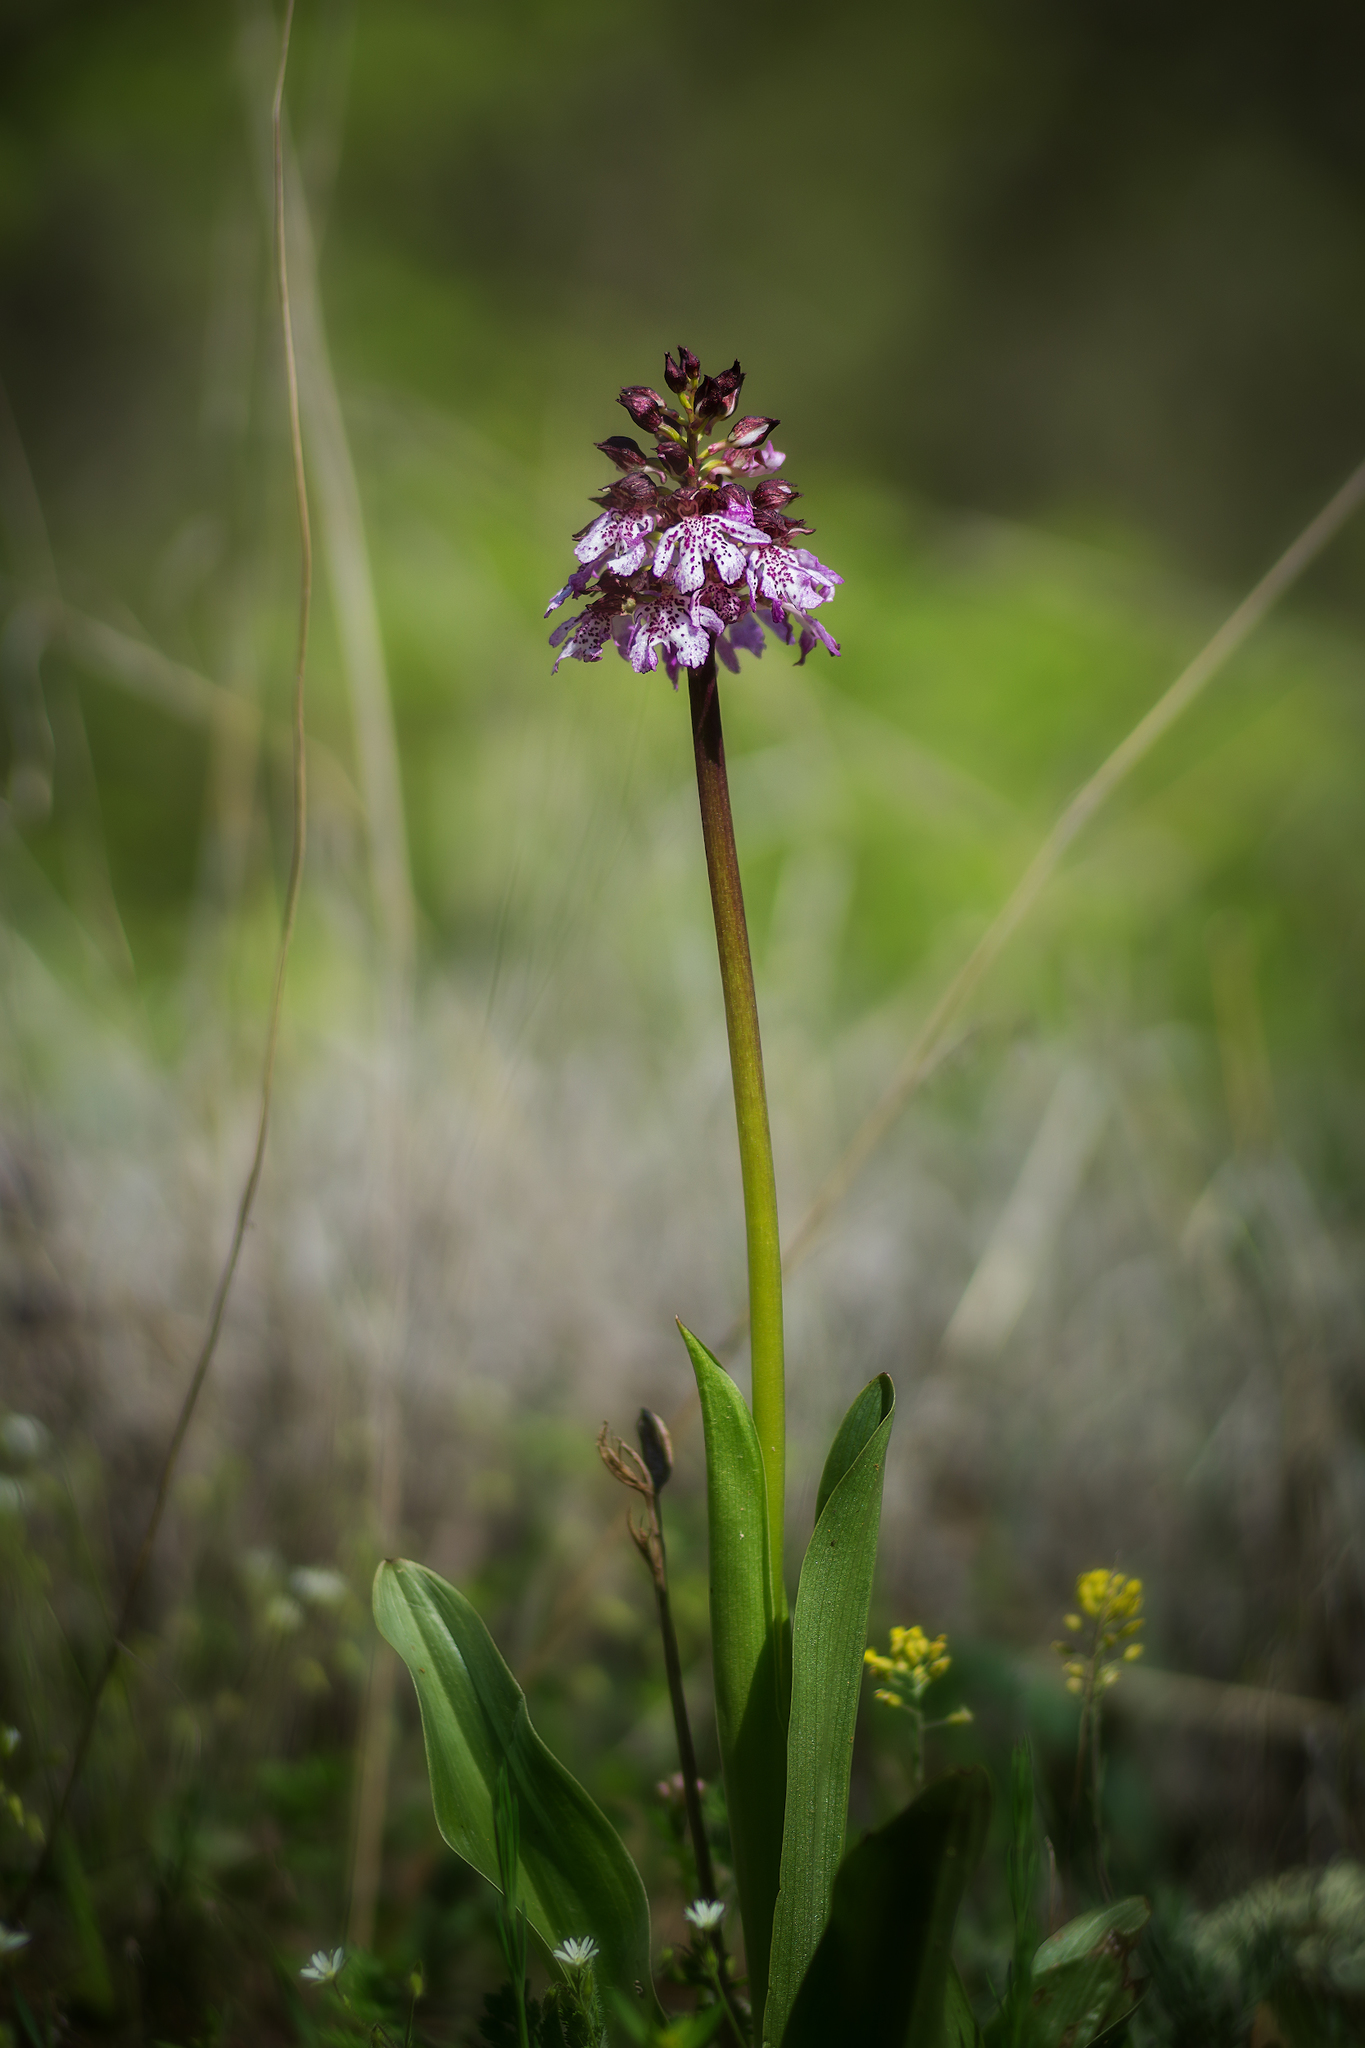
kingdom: Plantae
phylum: Tracheophyta
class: Liliopsida
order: Asparagales
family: Orchidaceae
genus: Orchis
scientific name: Orchis purpurea
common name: Lady orchid
